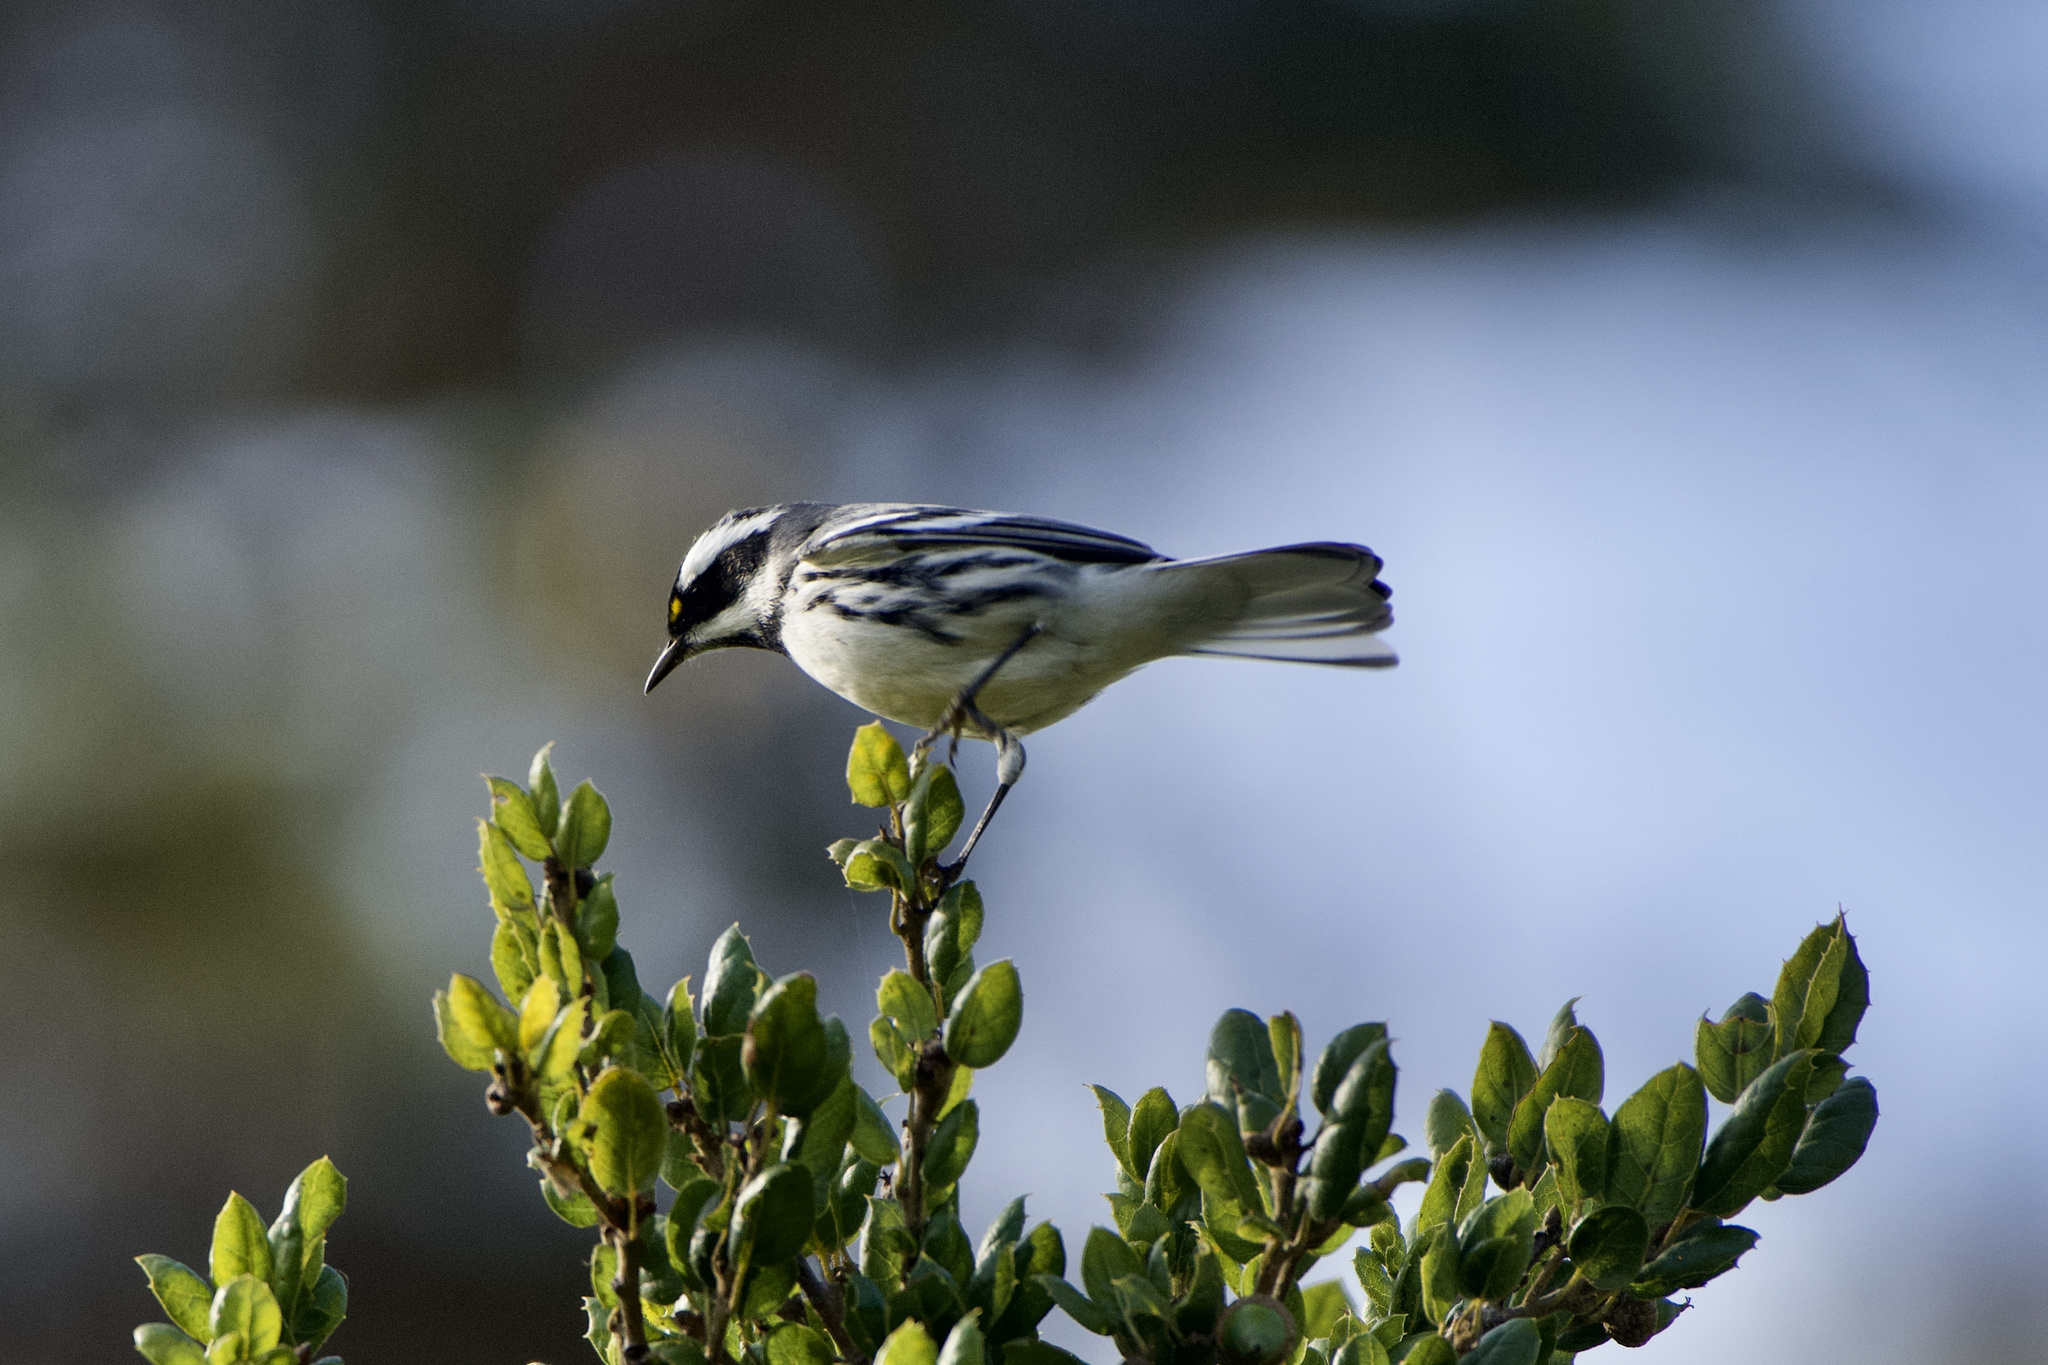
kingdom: Animalia
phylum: Chordata
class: Aves
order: Passeriformes
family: Parulidae
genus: Setophaga
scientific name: Setophaga nigrescens
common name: Black-throated gray warbler
